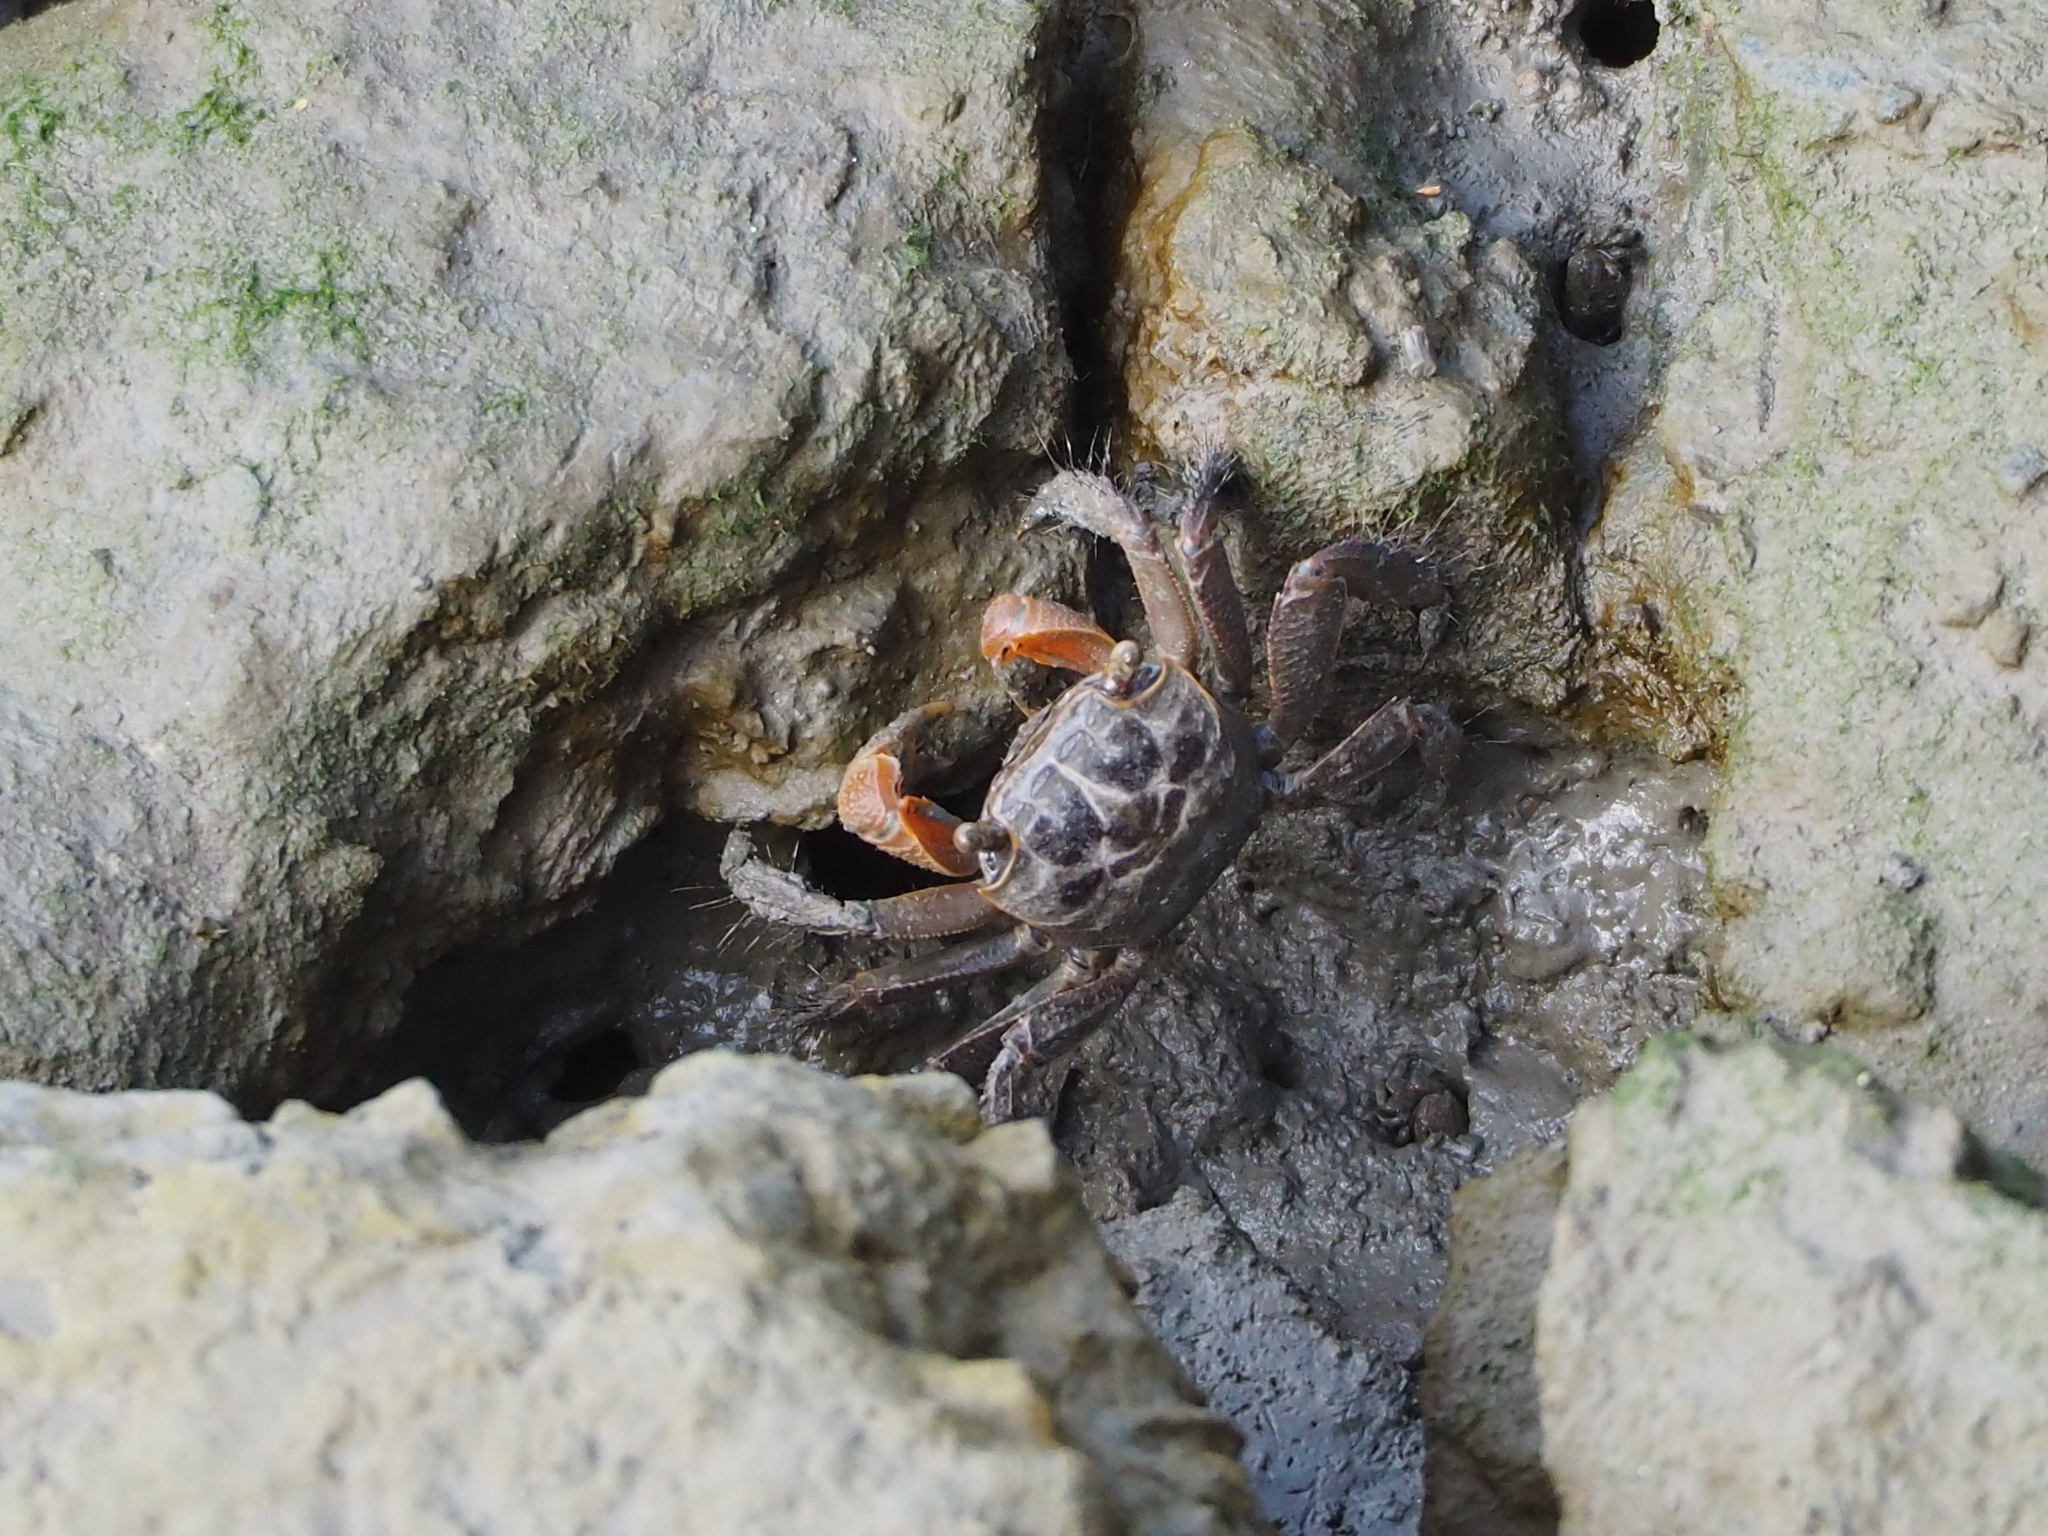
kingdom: Animalia
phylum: Arthropoda
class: Malacostraca
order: Decapoda
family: Sesarmidae
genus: Orisarma
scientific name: Orisarma dehaani
